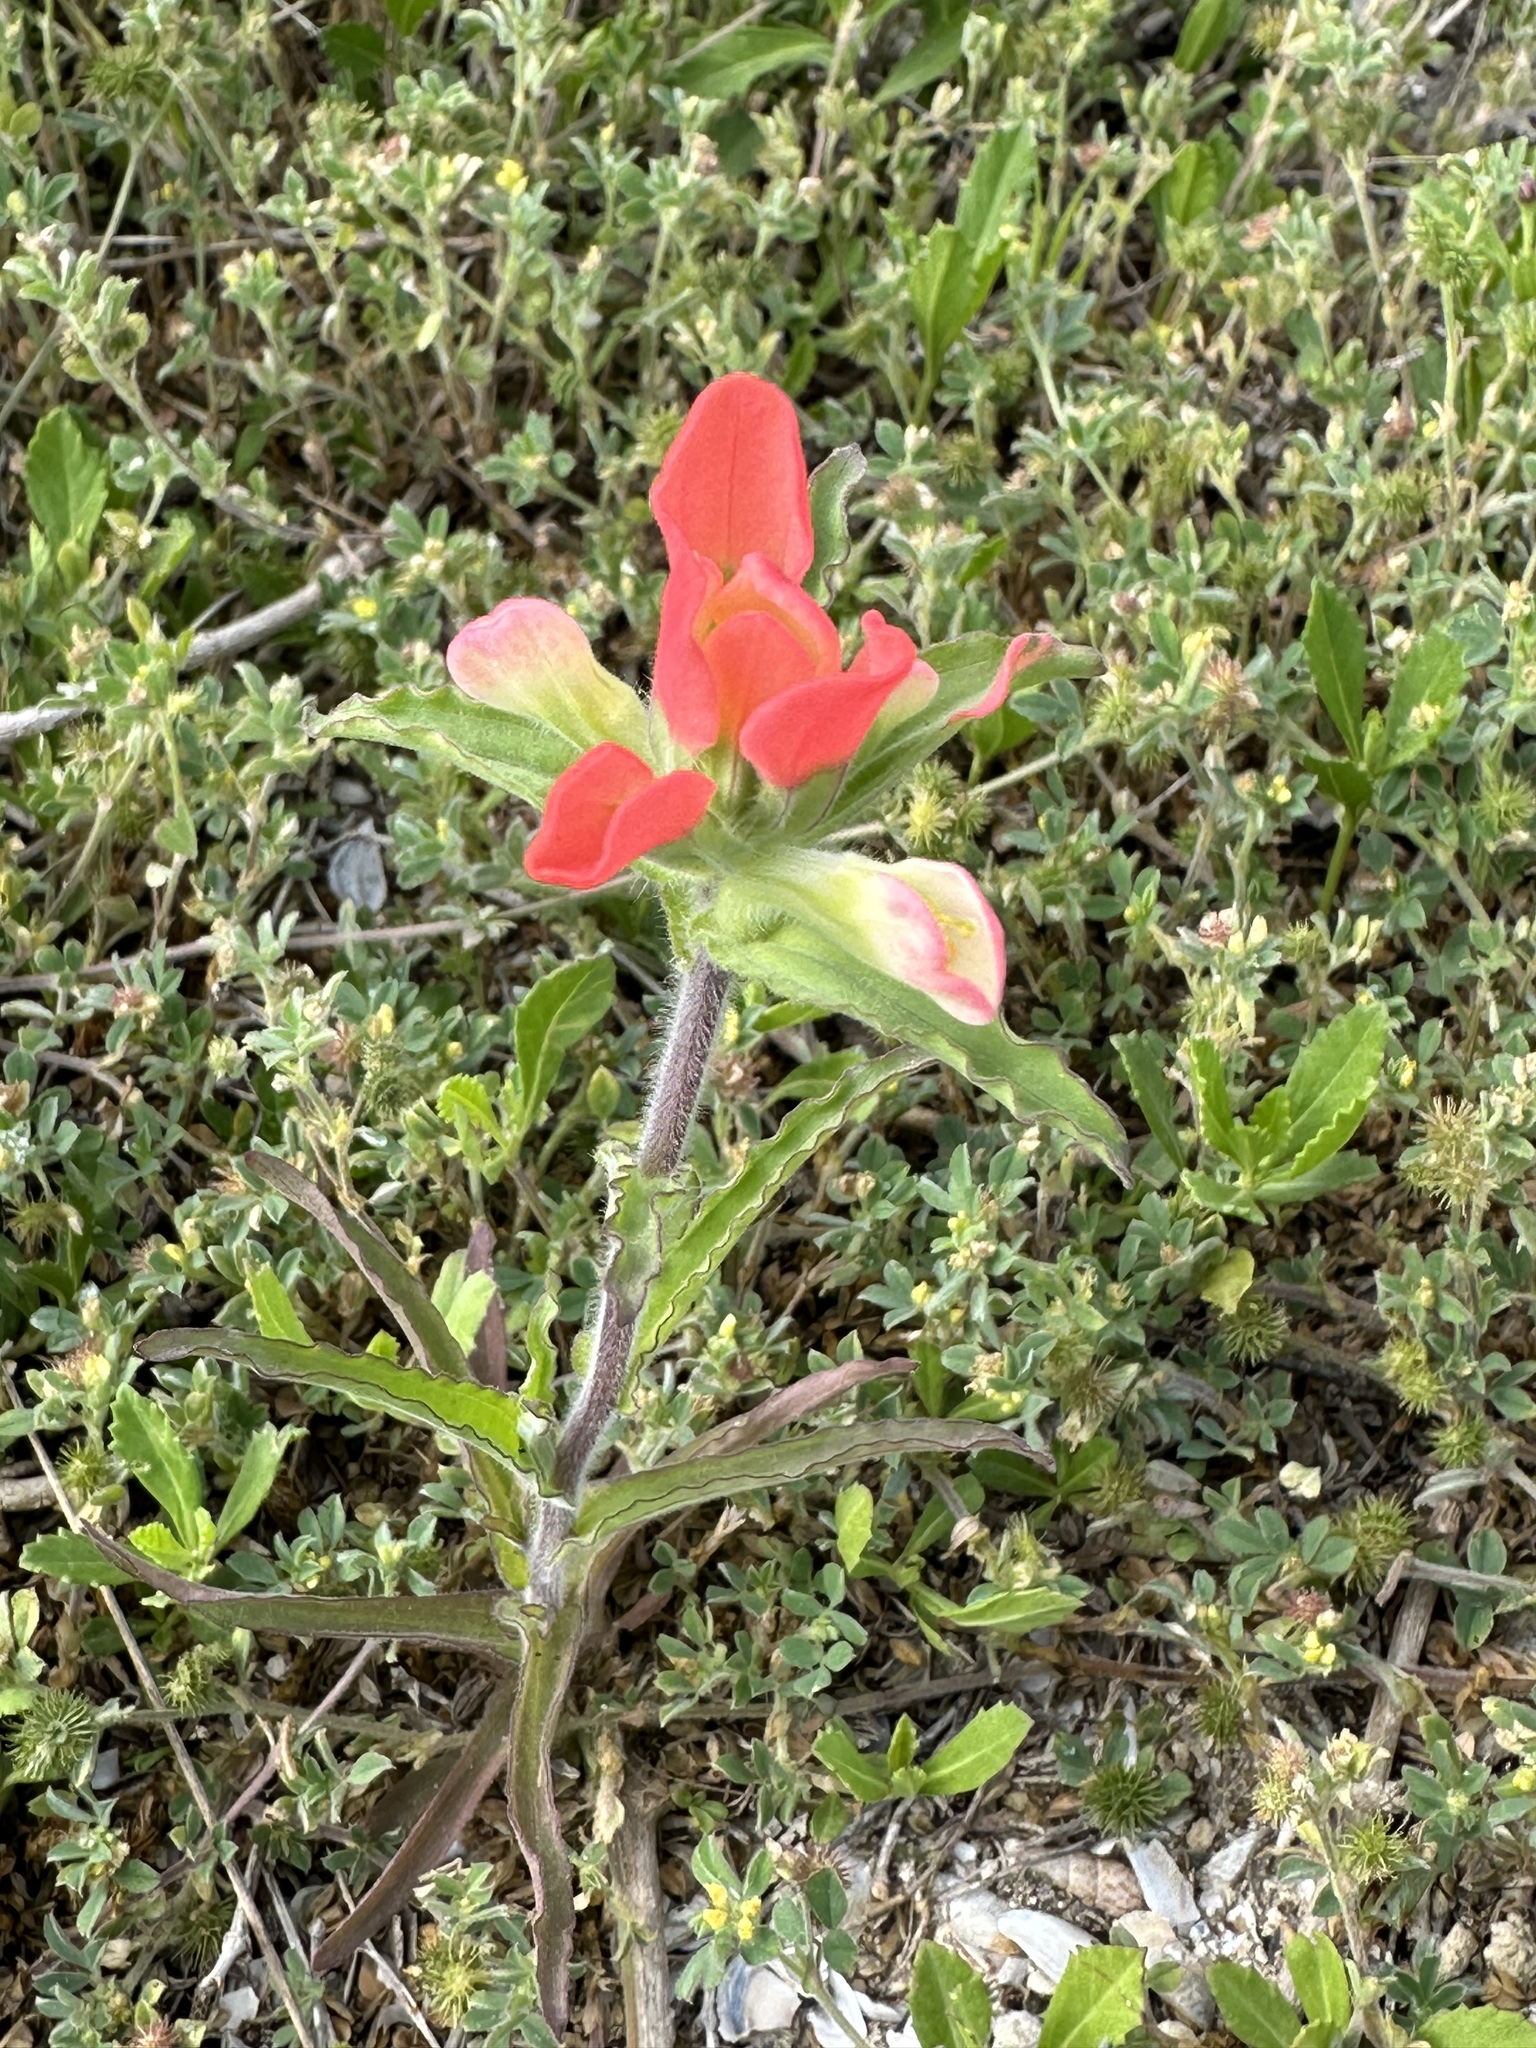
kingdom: Plantae
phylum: Tracheophyta
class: Magnoliopsida
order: Lamiales
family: Orobanchaceae
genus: Castilleja
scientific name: Castilleja indivisa
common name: Texas paintbrush
